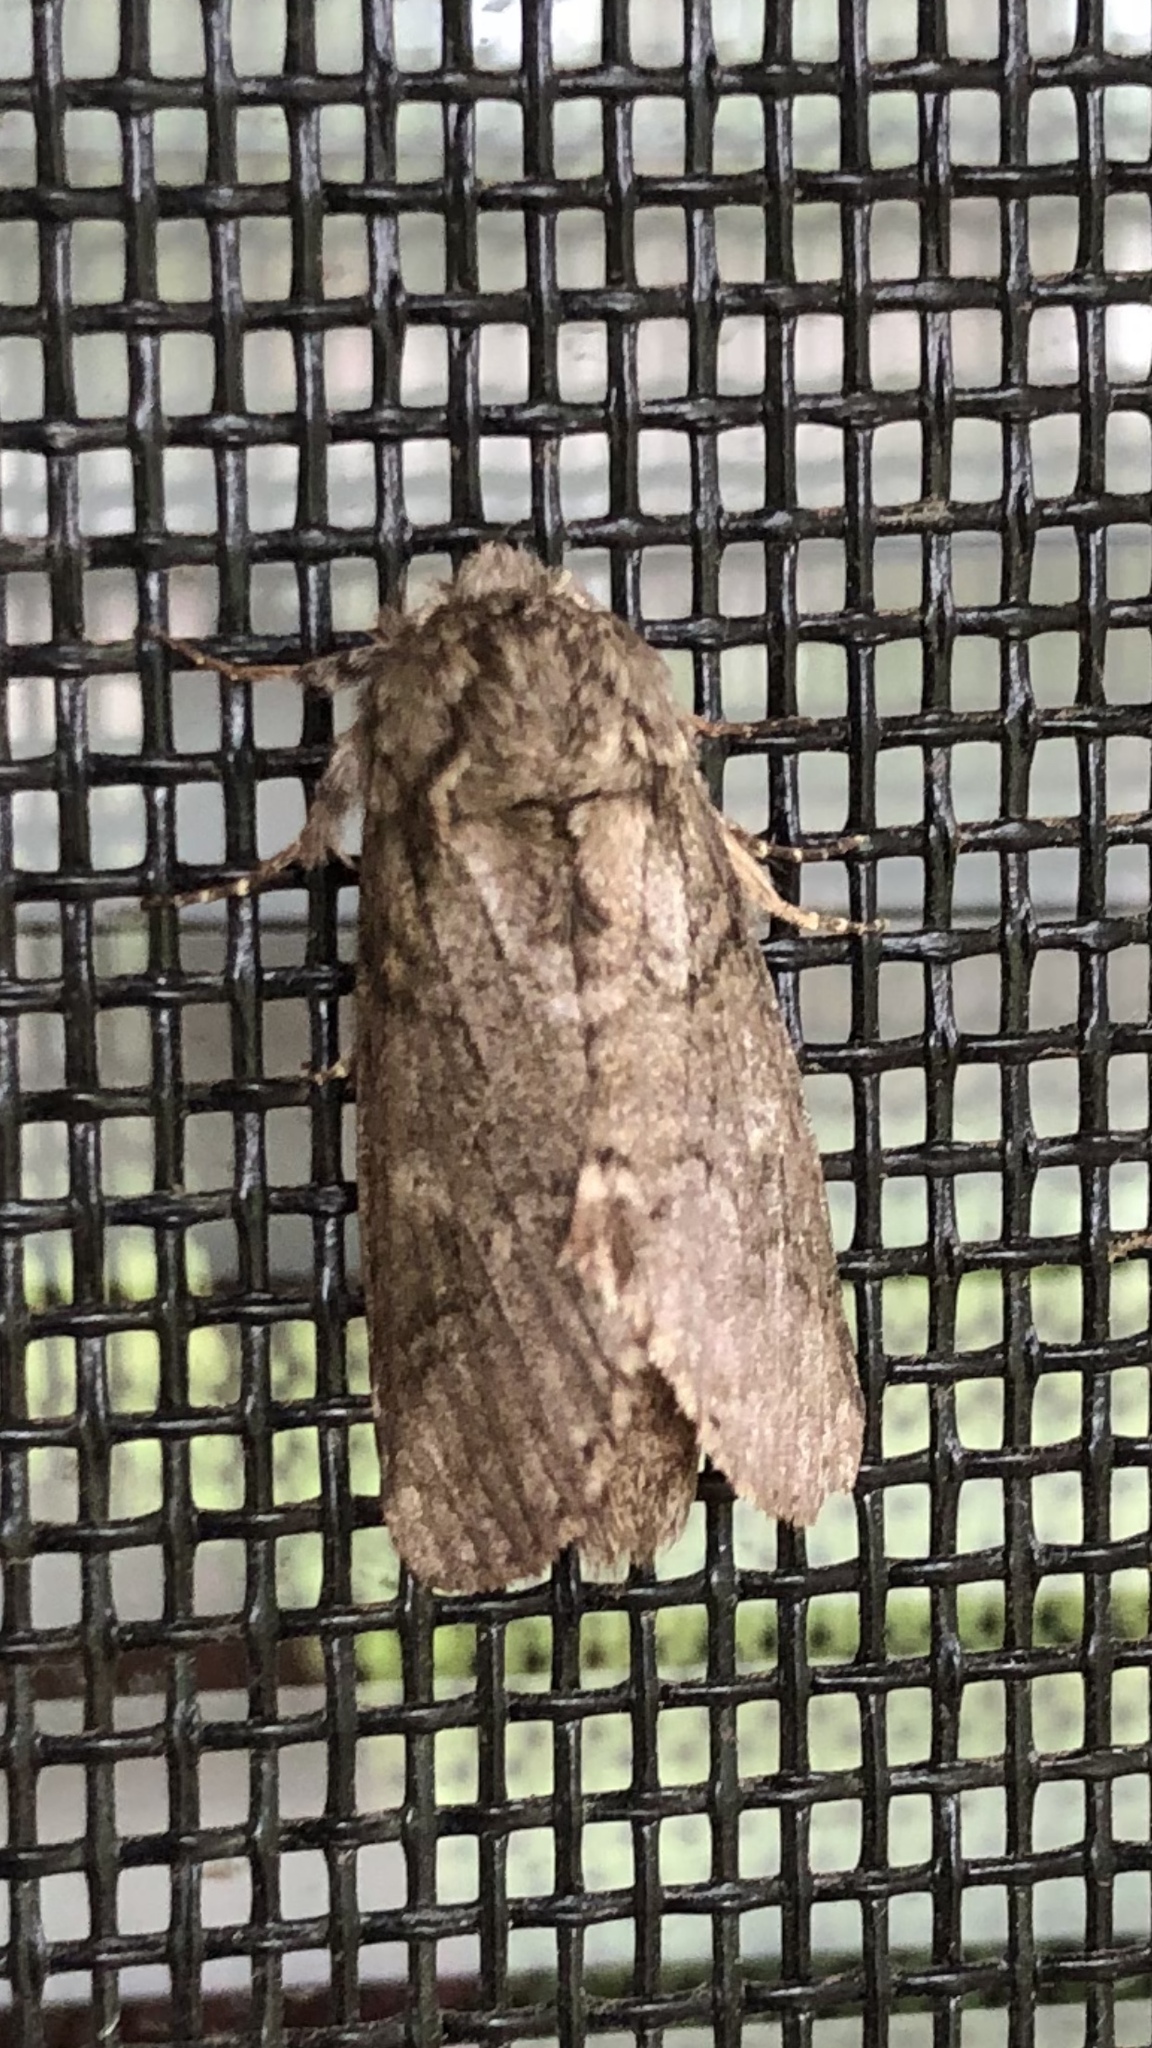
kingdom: Animalia
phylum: Arthropoda
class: Insecta
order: Lepidoptera
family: Notodontidae
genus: Lochmaeus
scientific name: Lochmaeus bilineata
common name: Double-lined prominent
